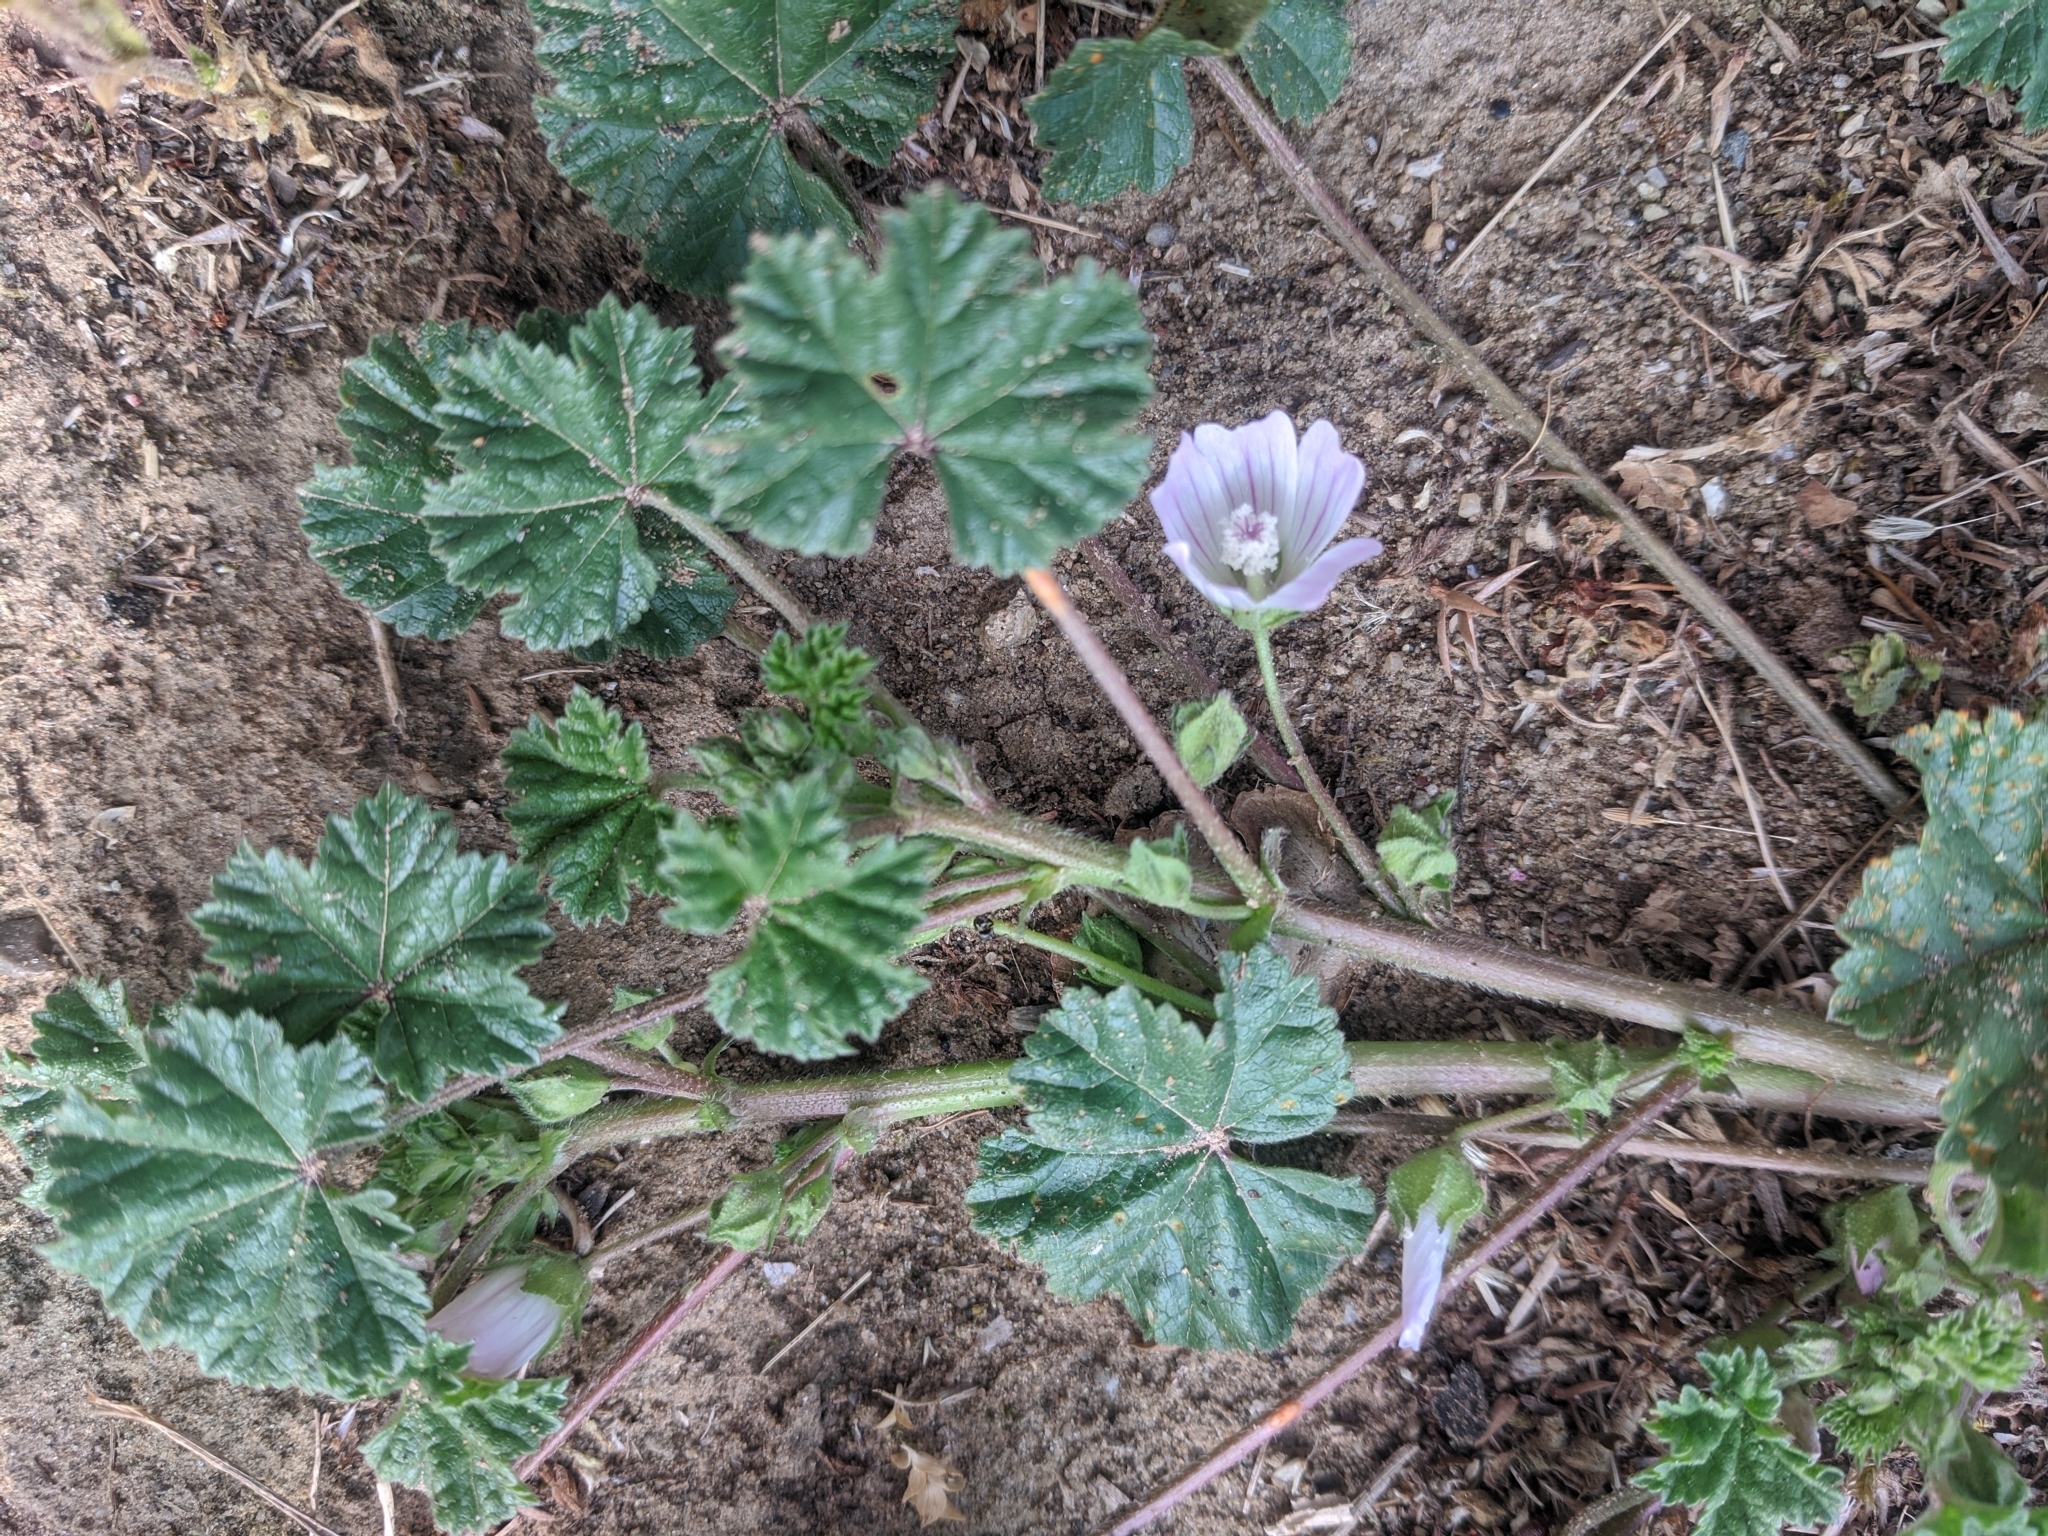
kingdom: Plantae
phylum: Tracheophyta
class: Magnoliopsida
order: Malvales
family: Malvaceae
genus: Malva
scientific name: Malva neglecta
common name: Common mallow
